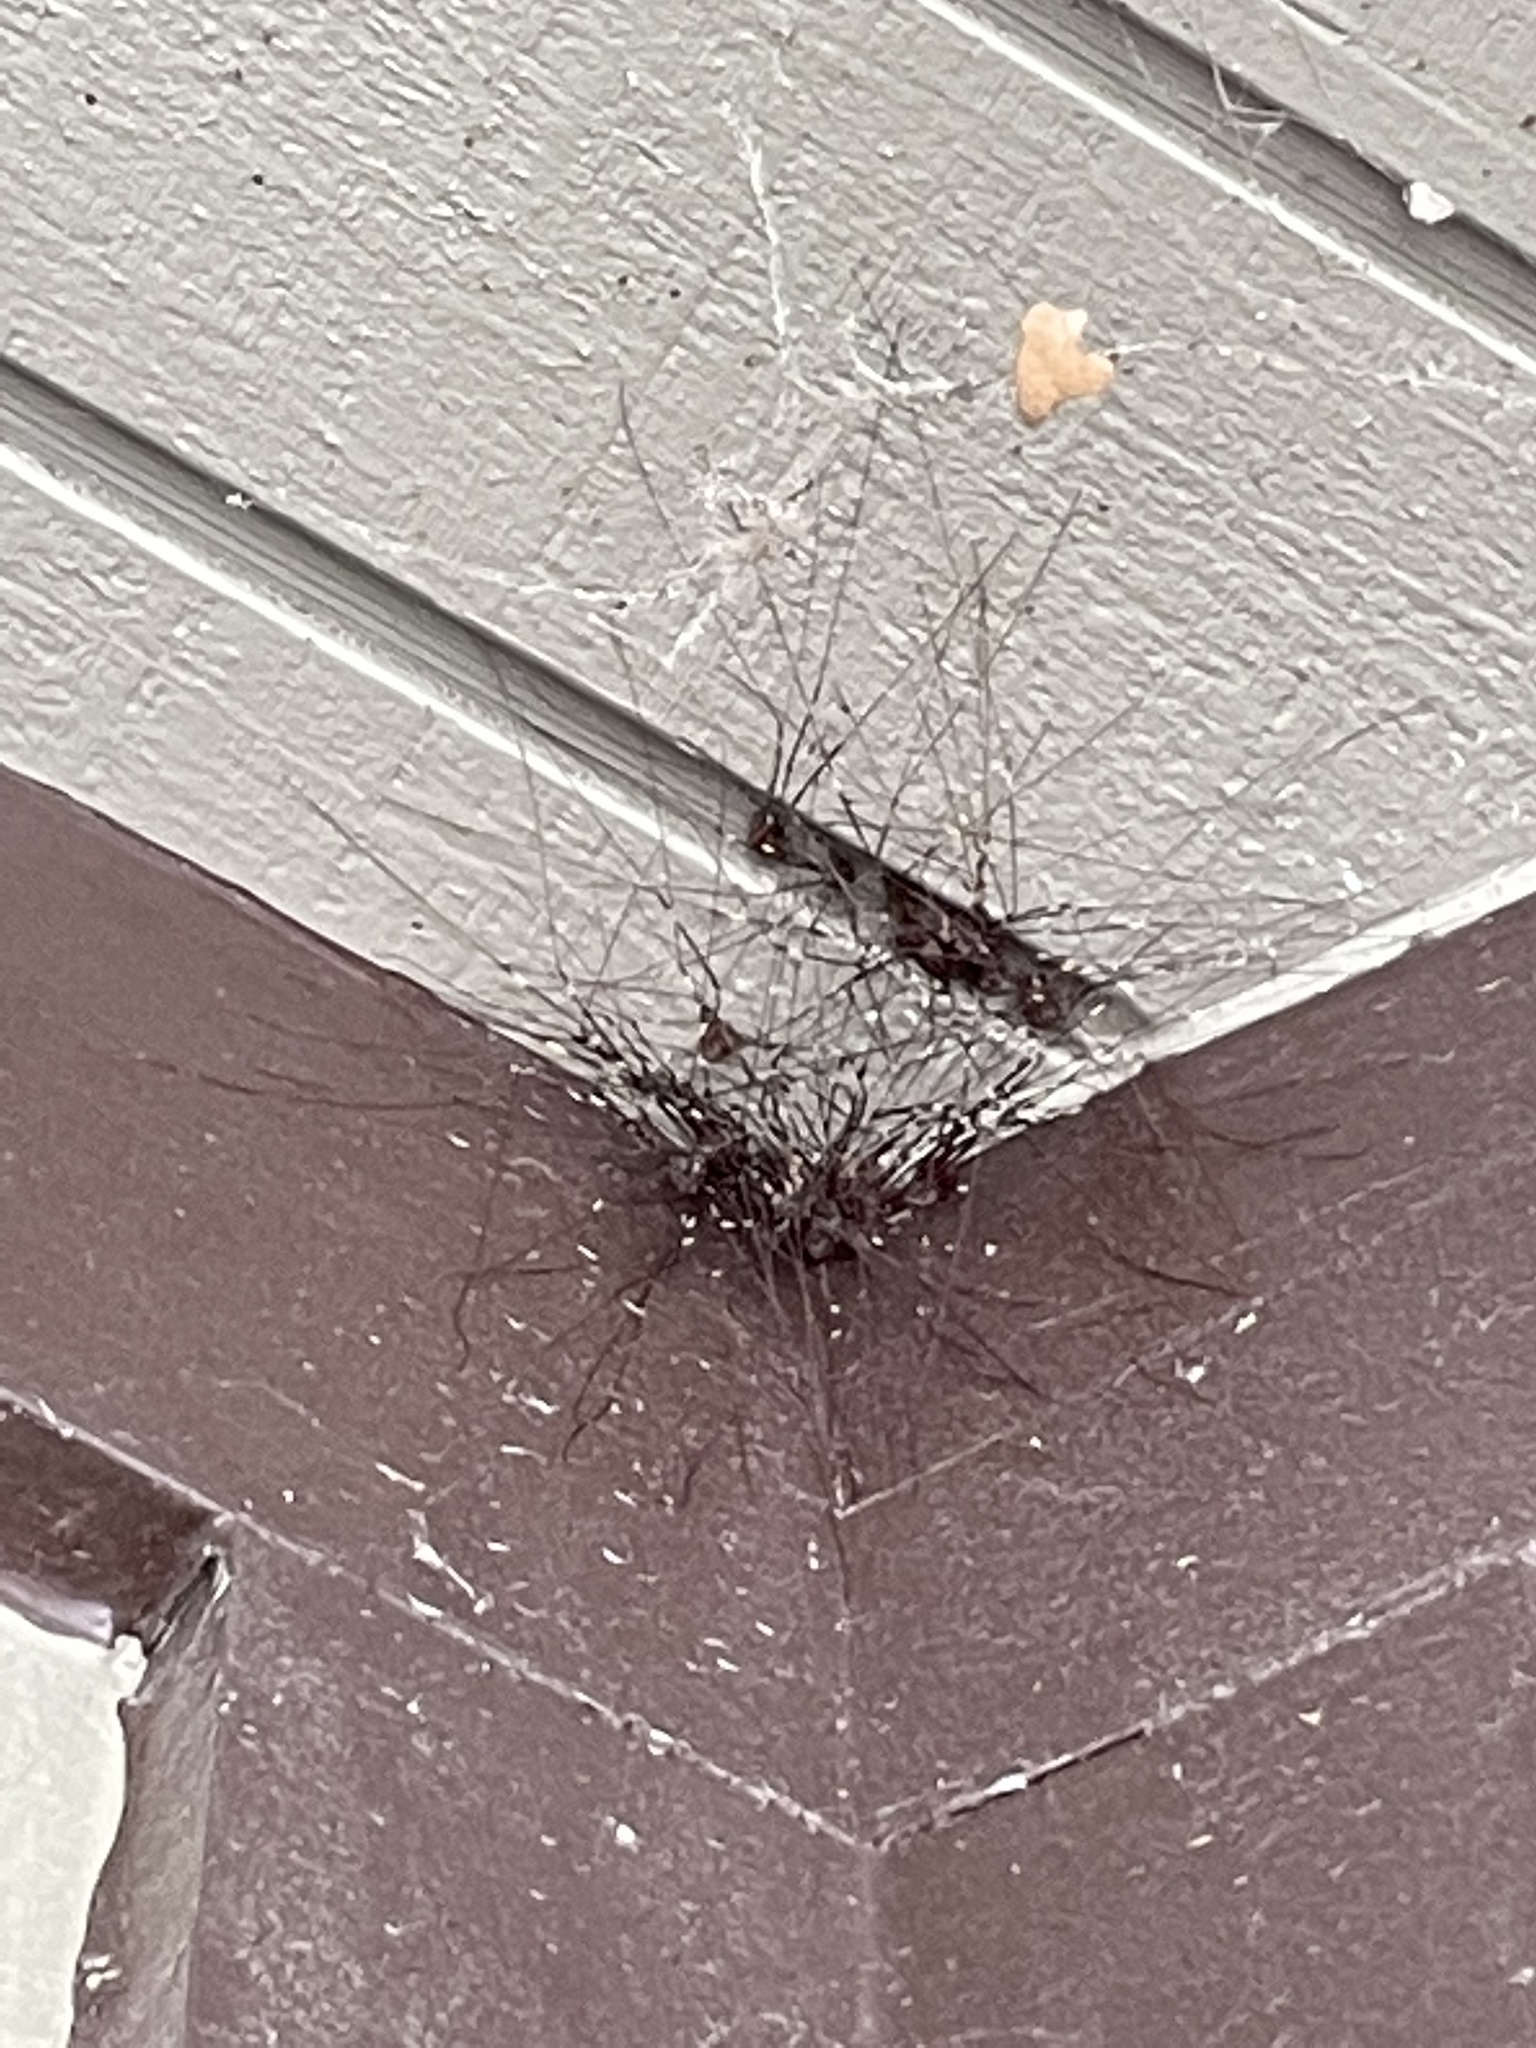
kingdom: Animalia
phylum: Arthropoda
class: Arachnida
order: Opiliones
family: Sclerosomatidae
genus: Leiobunum
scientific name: Leiobunum townsendi
